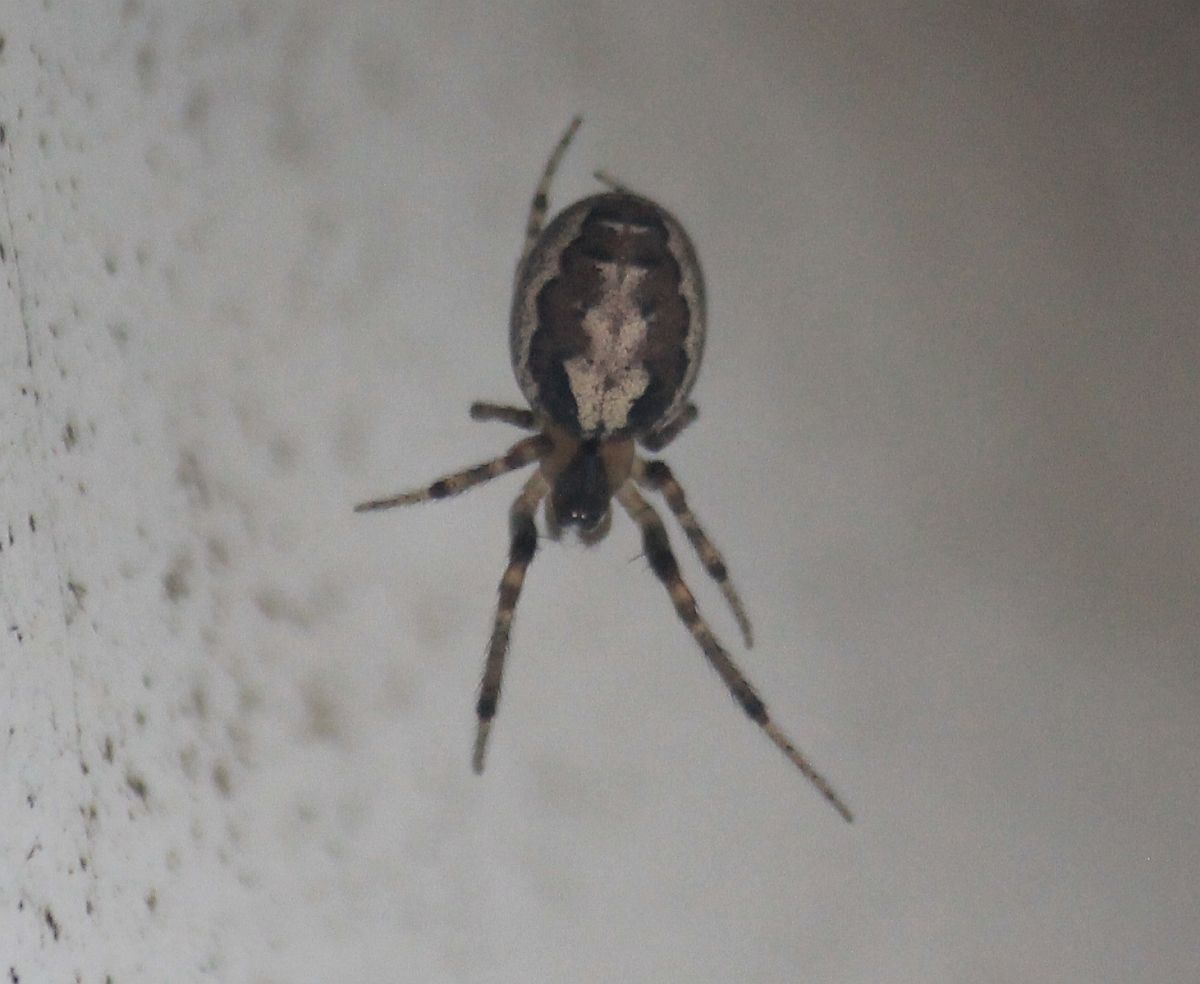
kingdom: Animalia
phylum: Arthropoda
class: Arachnida
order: Araneae
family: Araneidae
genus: Zygiella
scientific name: Zygiella x-notata
